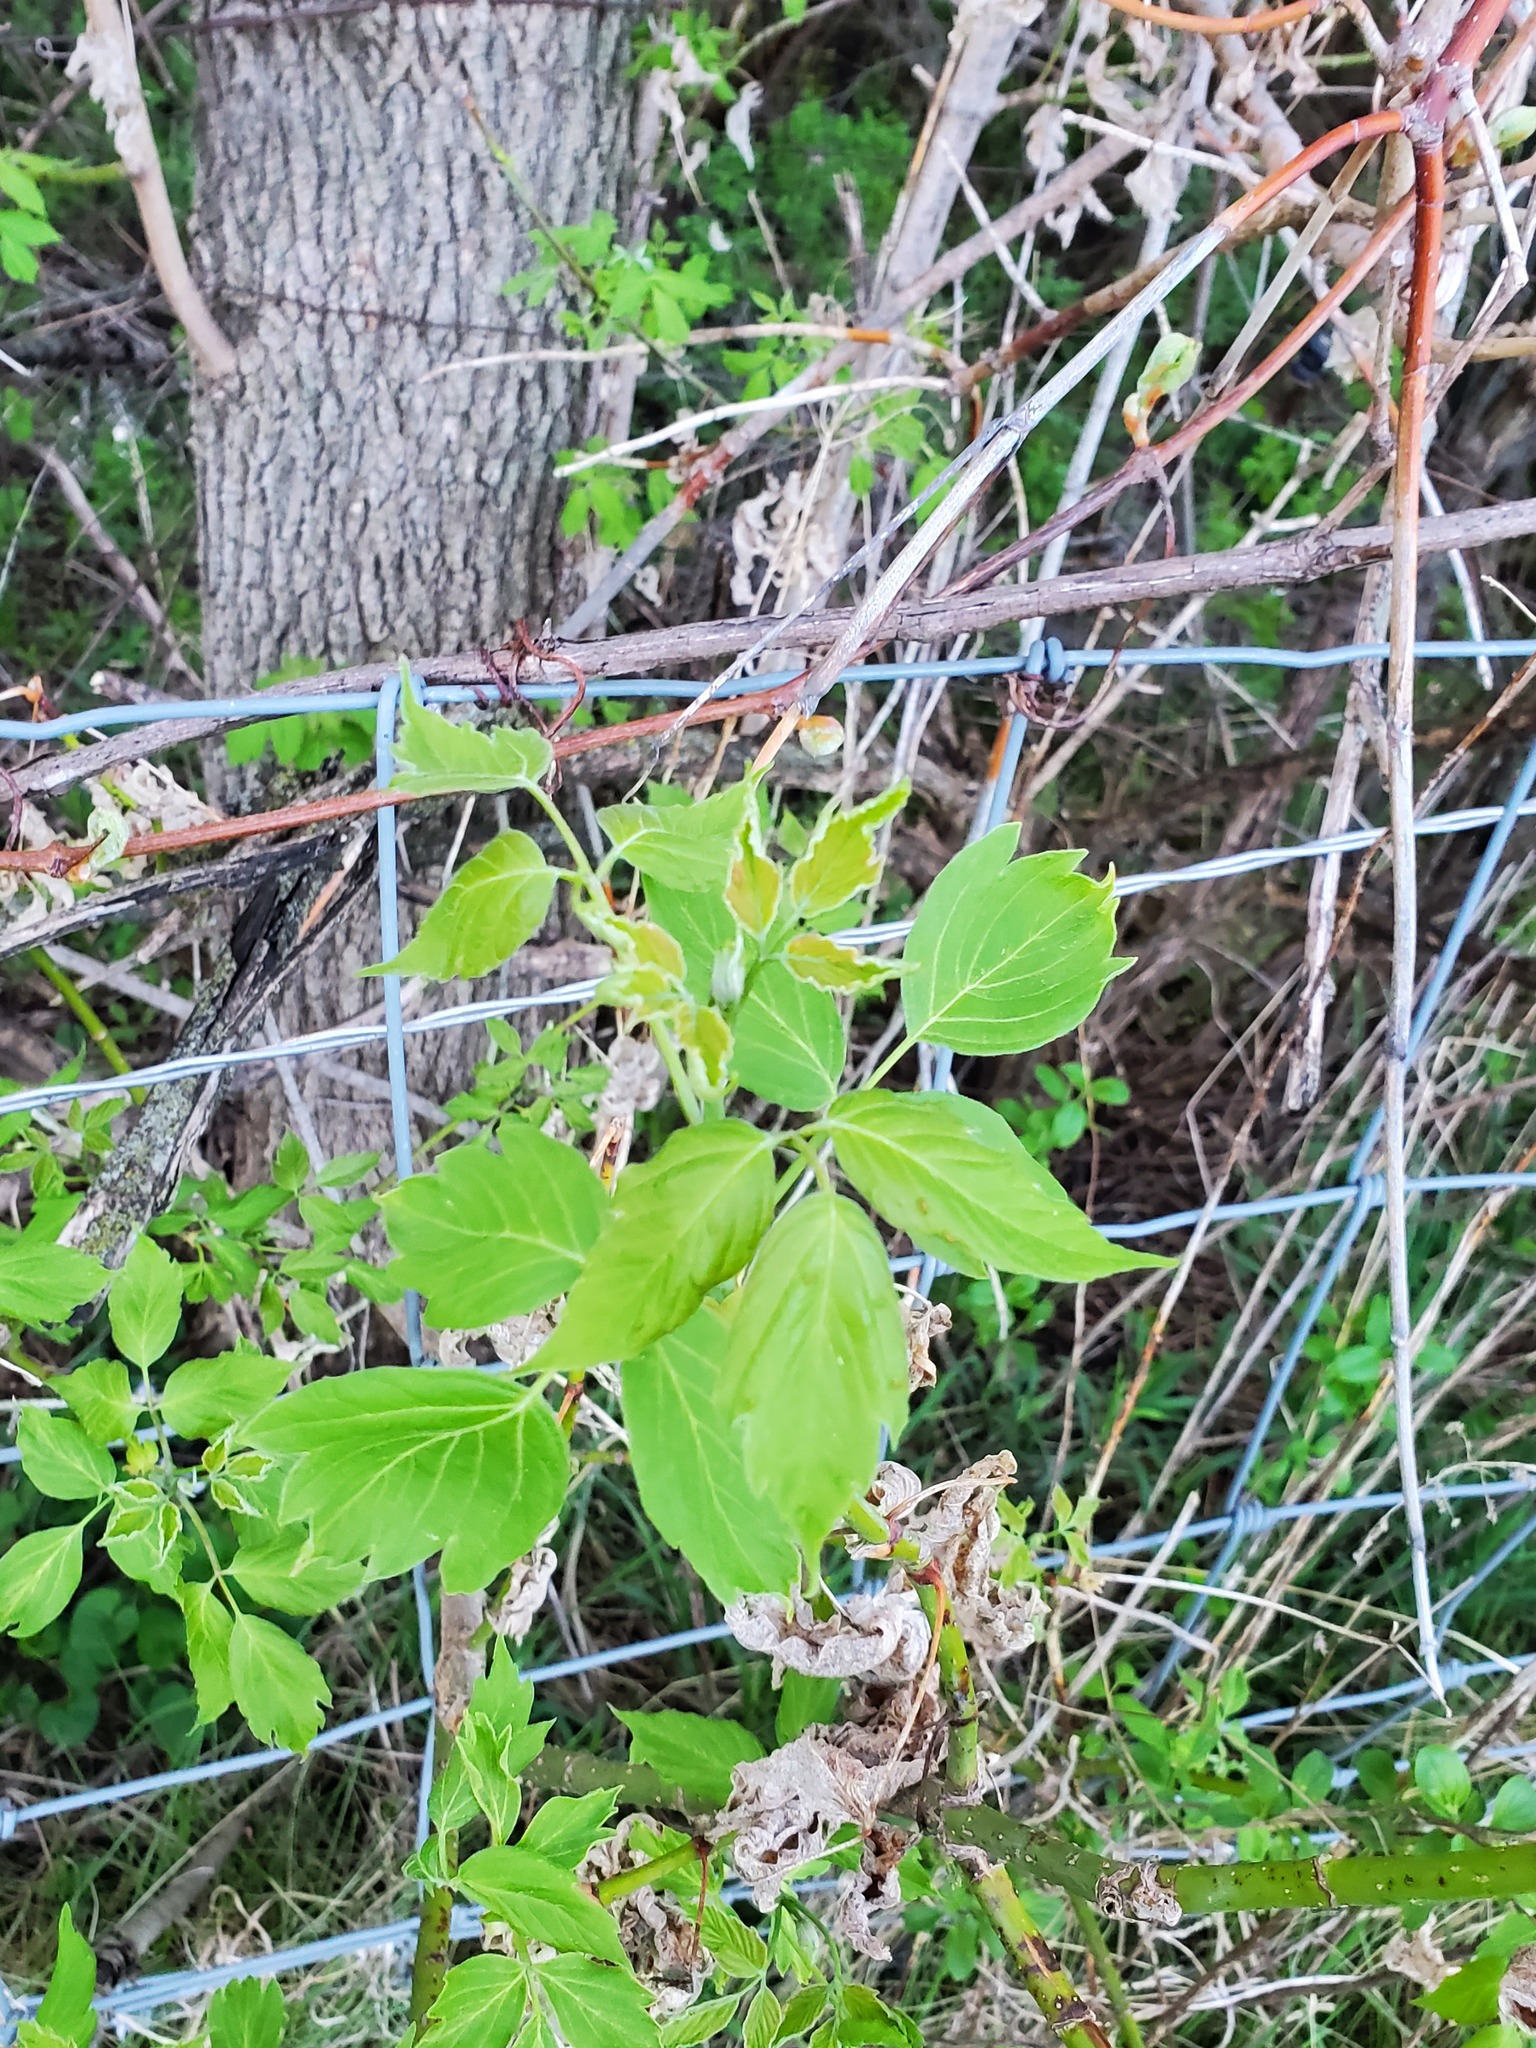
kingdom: Plantae
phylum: Tracheophyta
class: Magnoliopsida
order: Sapindales
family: Sapindaceae
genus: Acer
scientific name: Acer negundo
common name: Ashleaf maple
